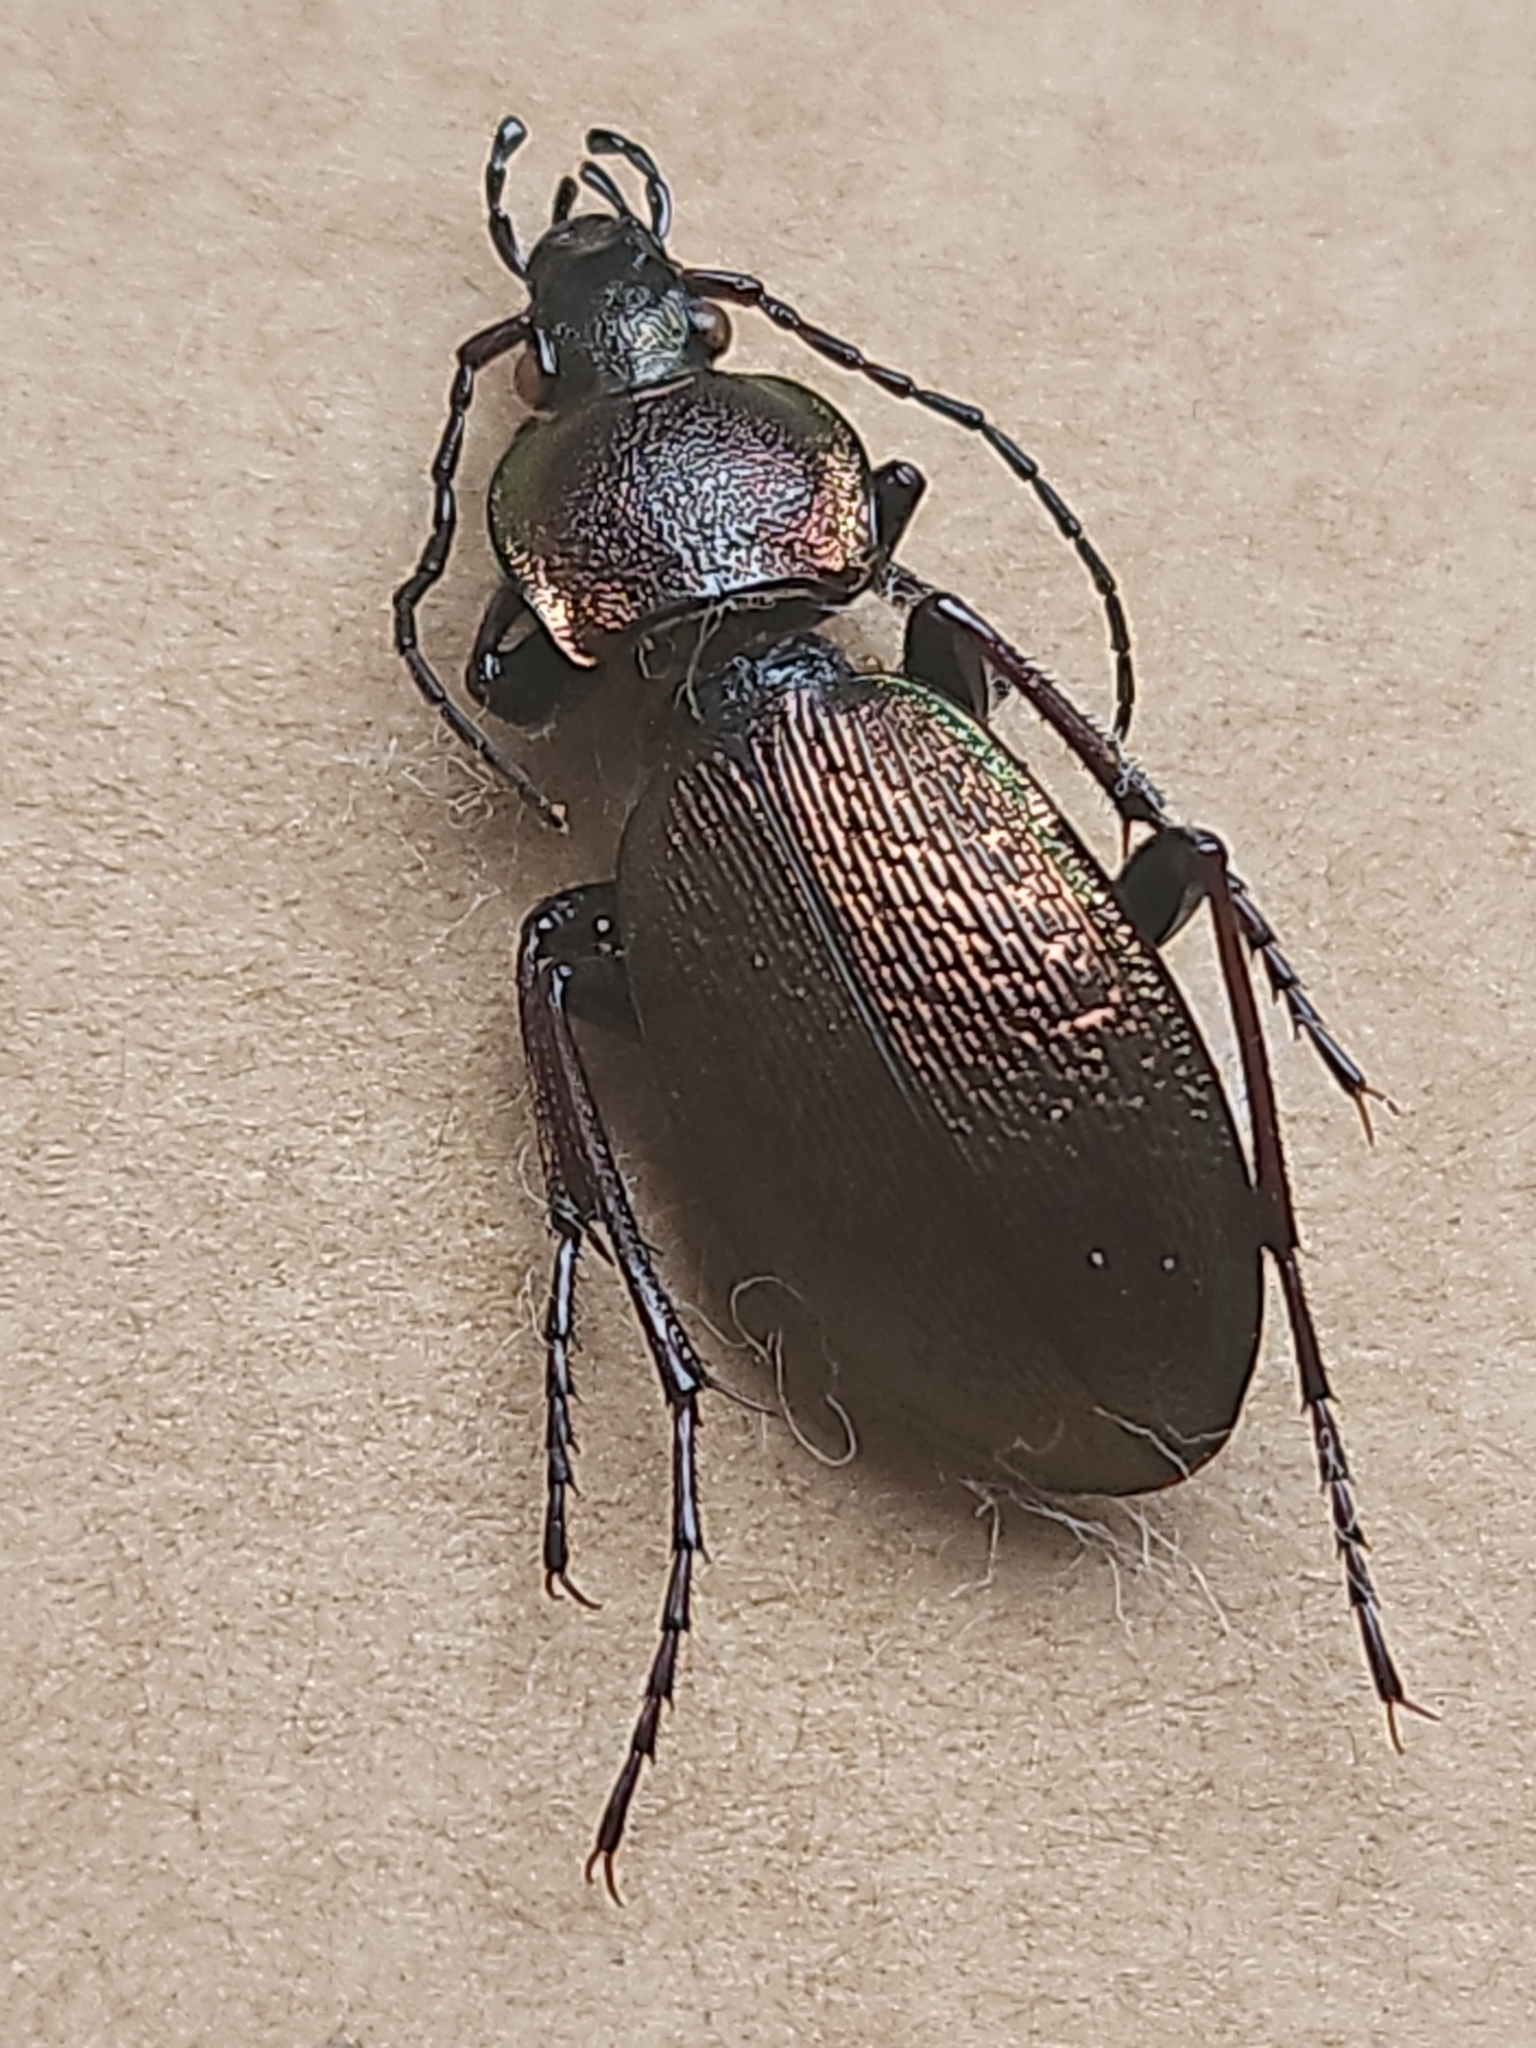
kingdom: Animalia
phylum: Arthropoda
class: Insecta
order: Coleoptera
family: Carabidae
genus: Carabus
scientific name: Carabus regalis
